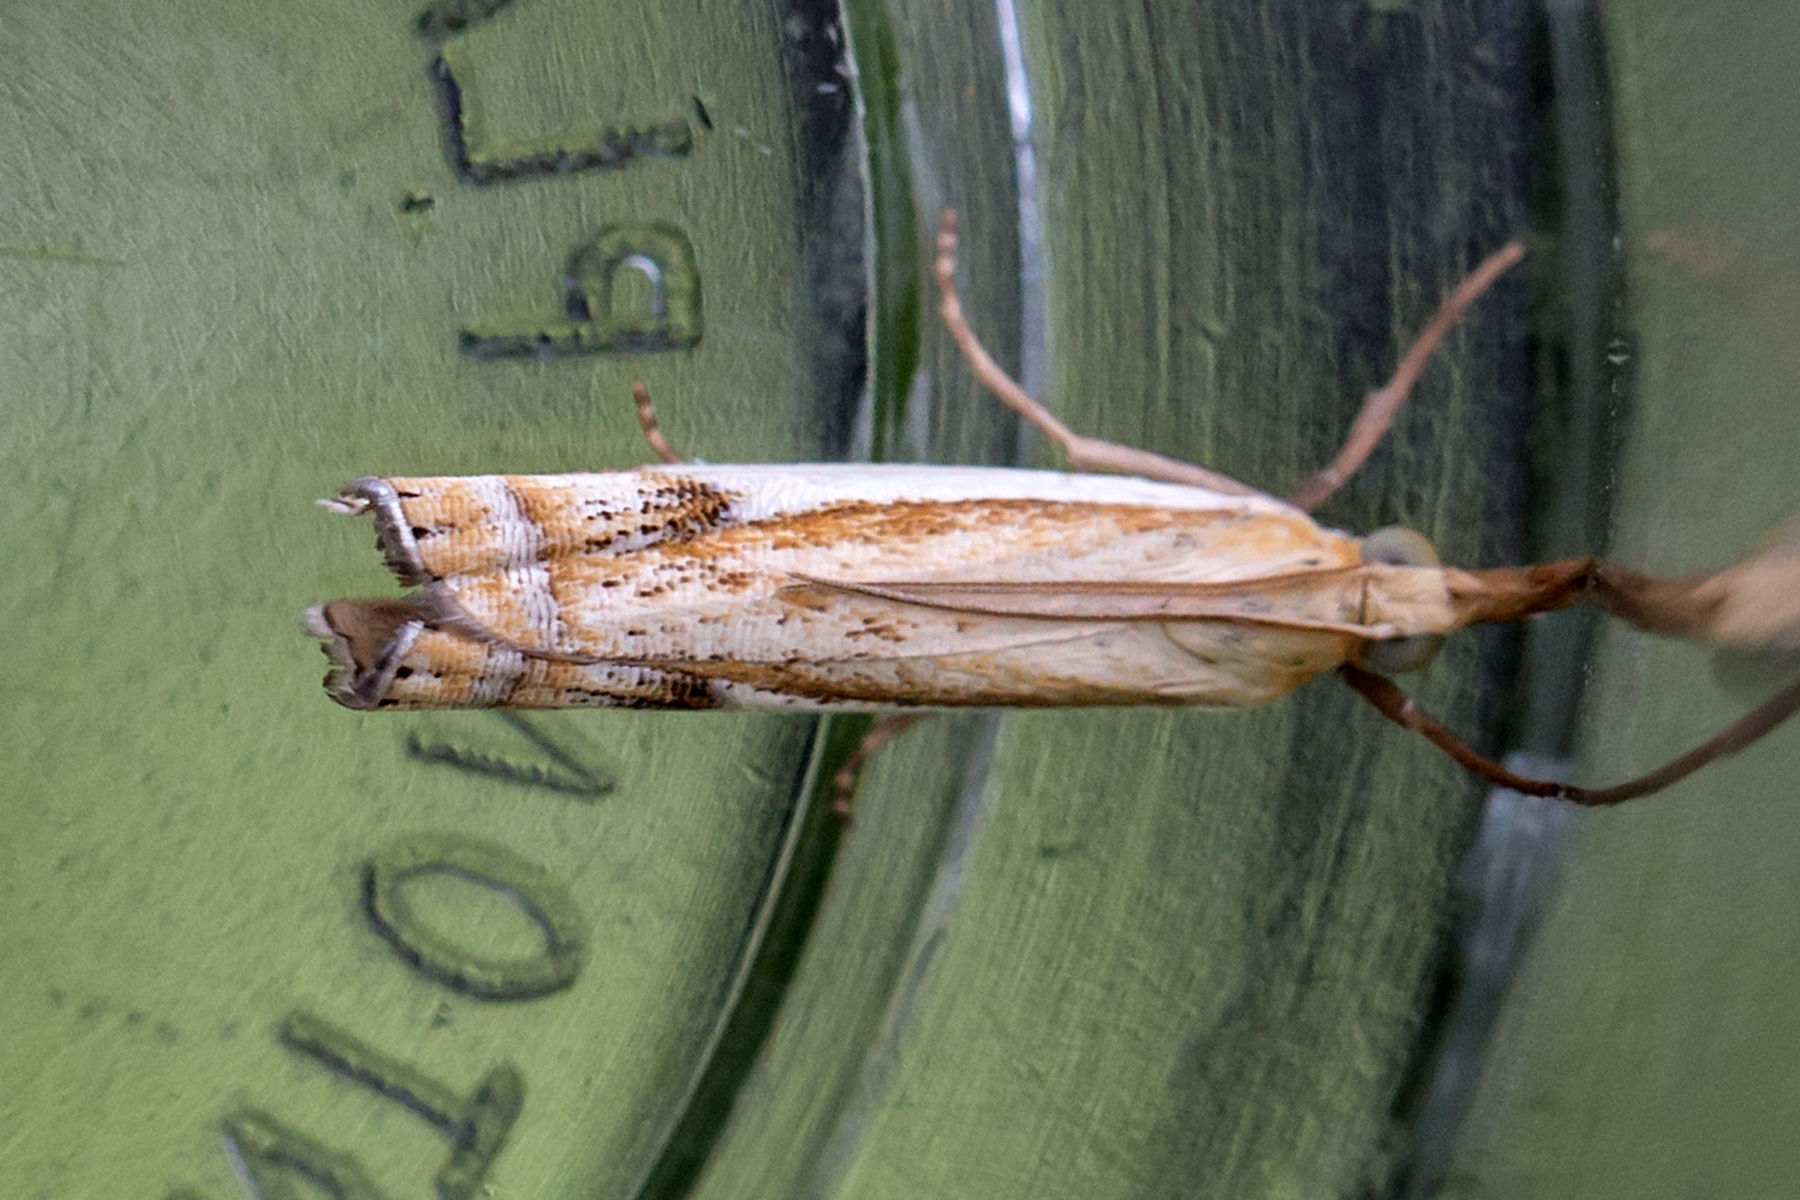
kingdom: Animalia
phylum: Arthropoda
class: Insecta
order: Lepidoptera
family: Crambidae
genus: Crambus
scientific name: Crambus agitatellus
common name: Double-banded grass-veneer
